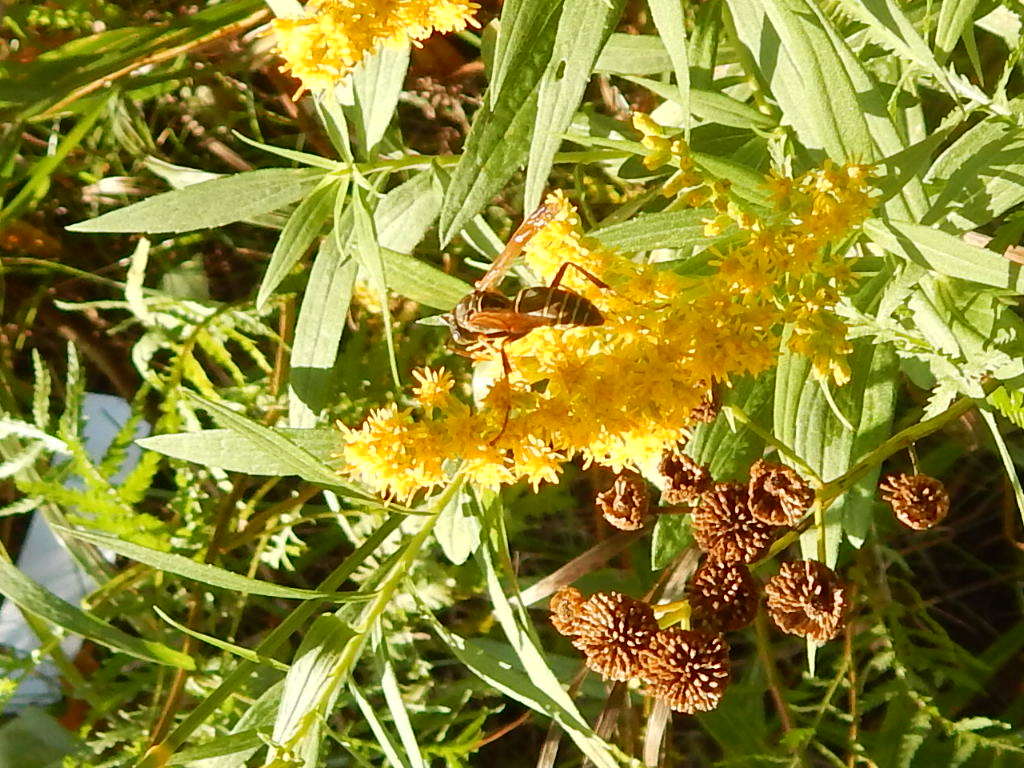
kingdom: Animalia
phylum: Arthropoda
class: Insecta
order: Hymenoptera
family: Eumenidae
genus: Polistes
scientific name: Polistes fuscatus
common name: Dark paper wasp
